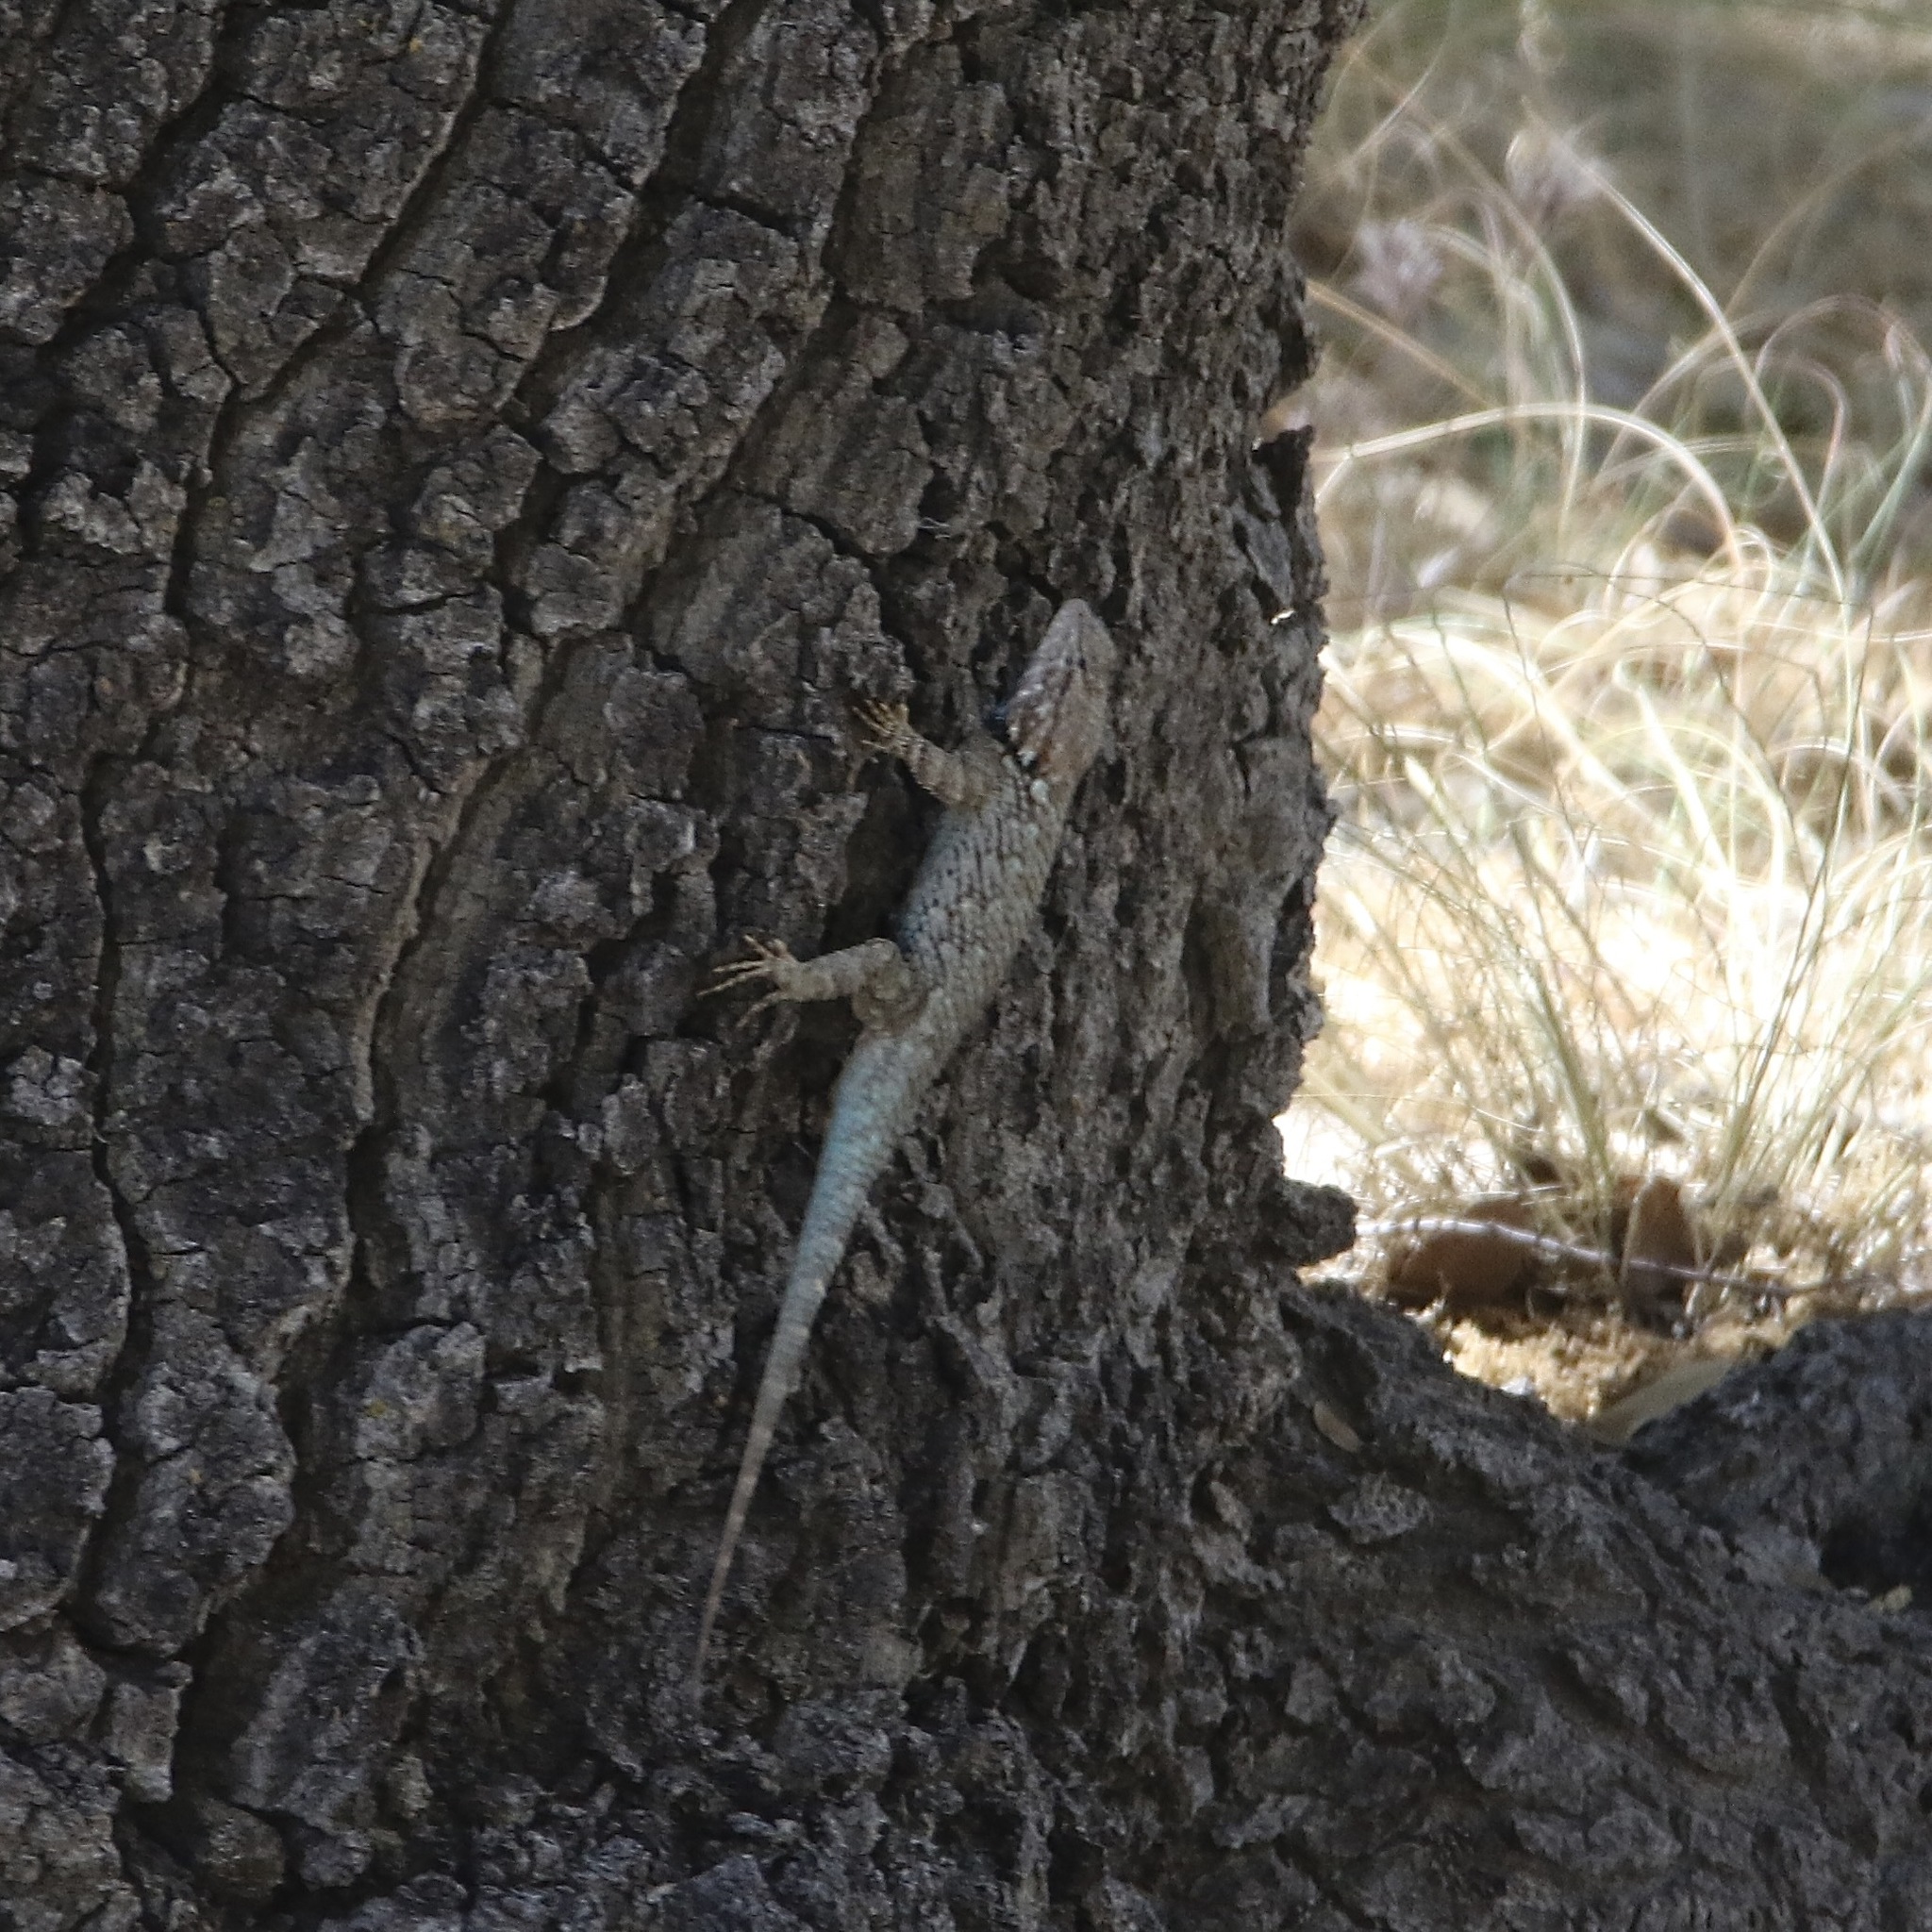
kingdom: Animalia
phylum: Chordata
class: Squamata
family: Phrynosomatidae
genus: Sceloporus
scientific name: Sceloporus clarkii
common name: Clark's spiny lizard
